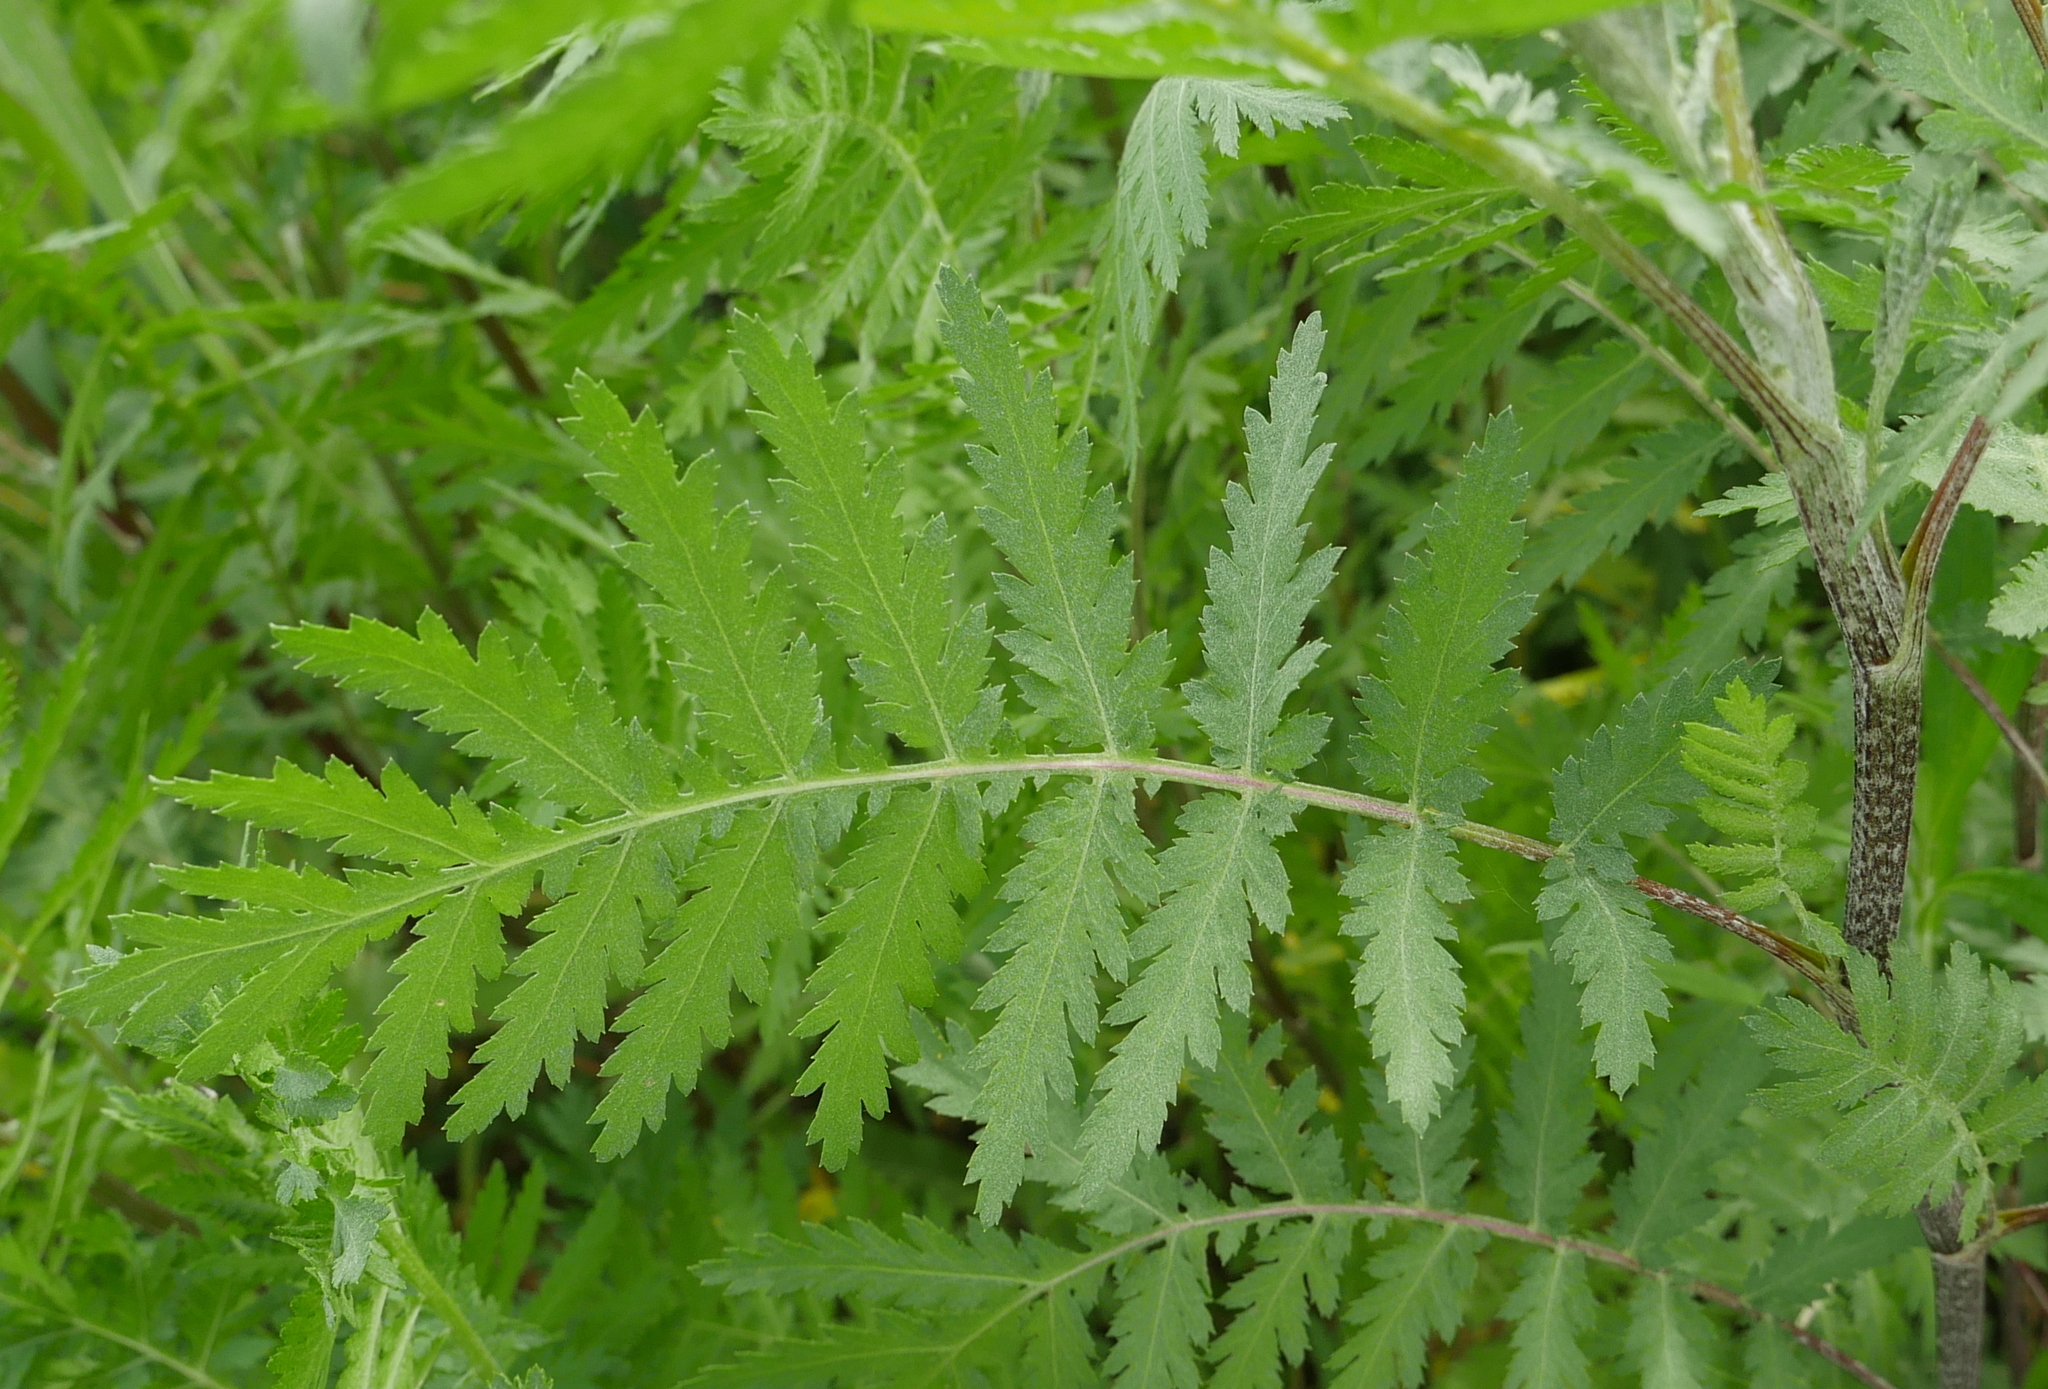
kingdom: Plantae
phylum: Tracheophyta
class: Magnoliopsida
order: Asterales
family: Asteraceae
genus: Tanacetum
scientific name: Tanacetum vulgare
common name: Common tansy
